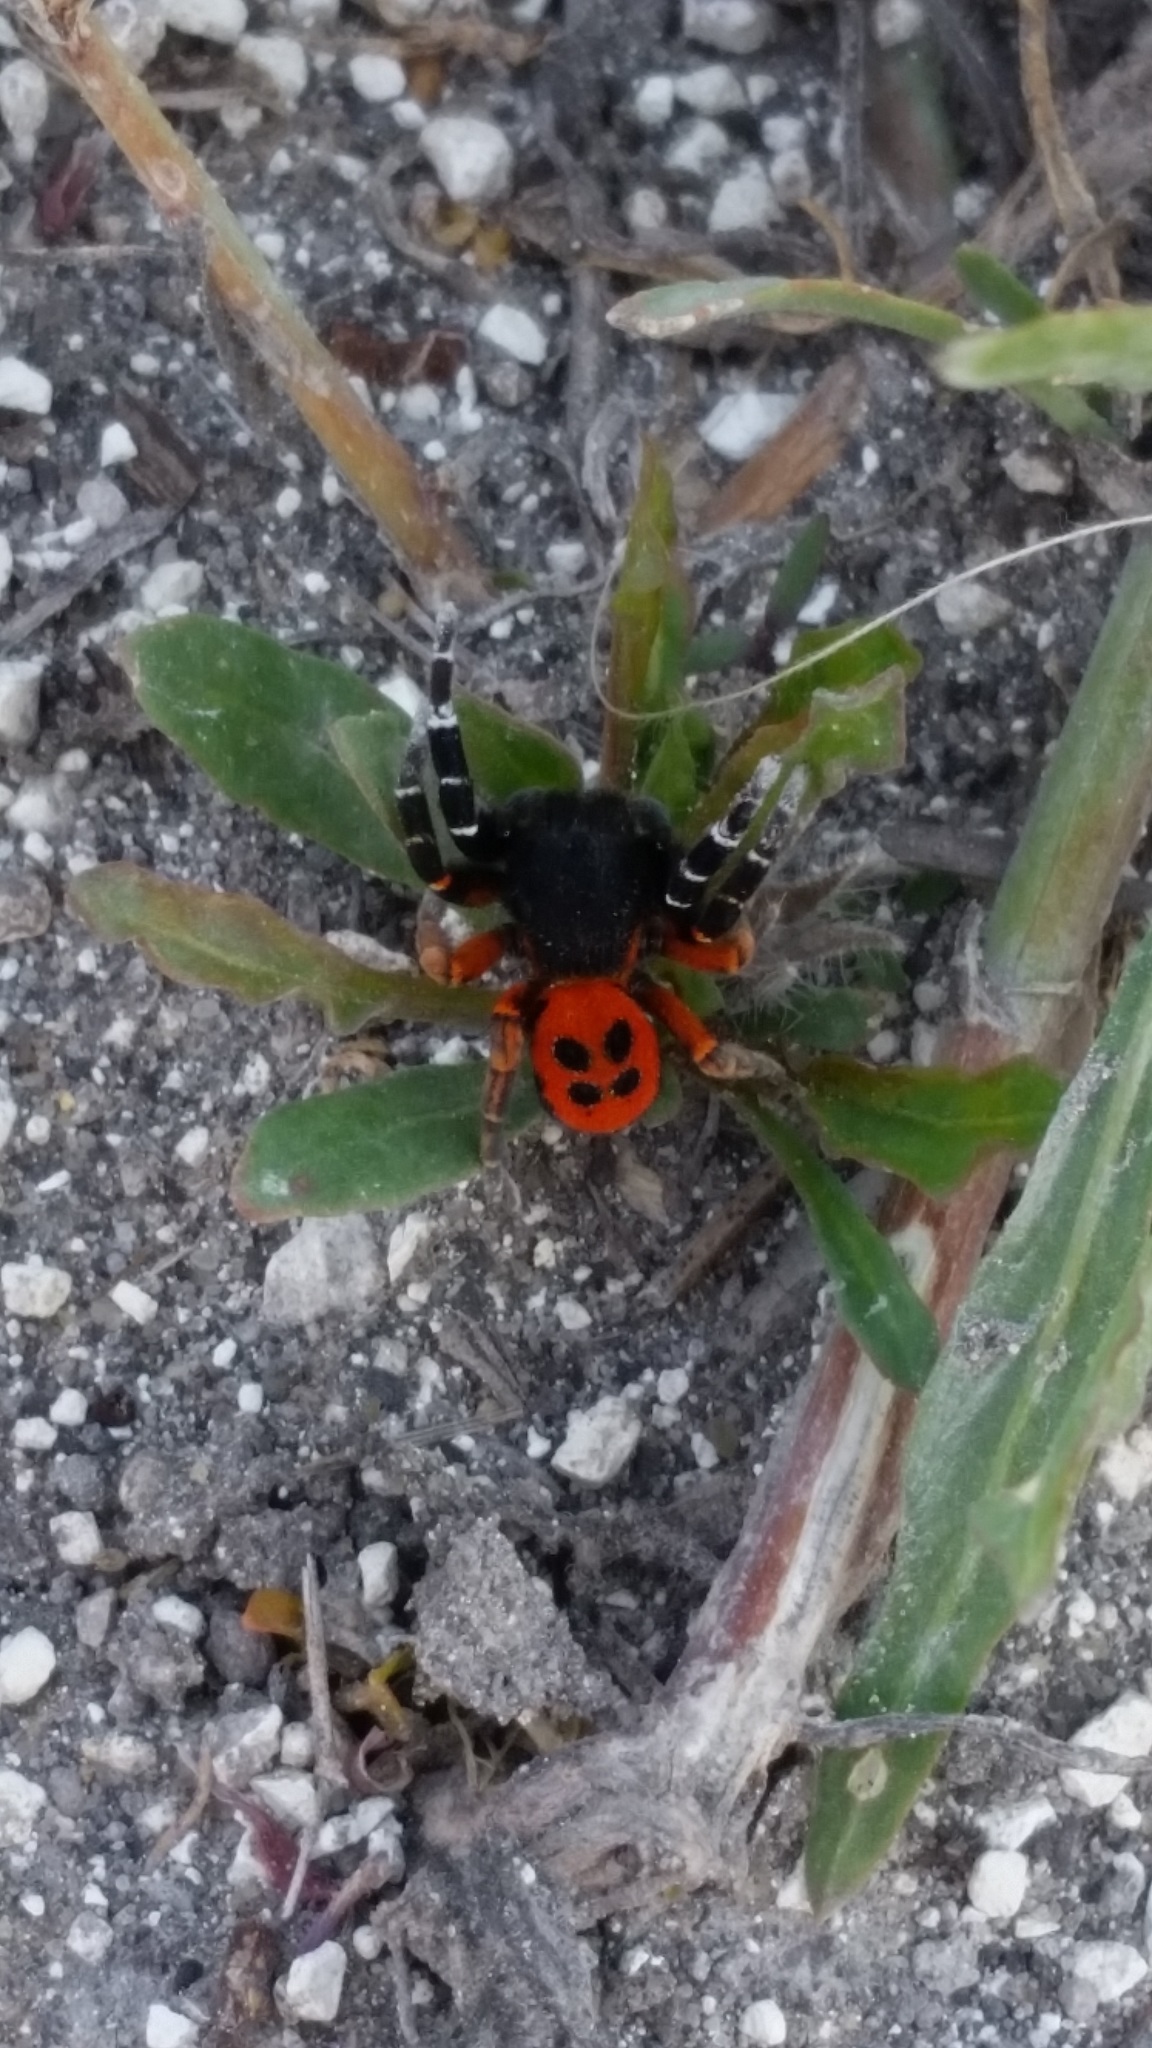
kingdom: Animalia
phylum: Arthropoda
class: Arachnida
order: Araneae
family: Eresidae
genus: Eresus
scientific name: Eresus kollari
